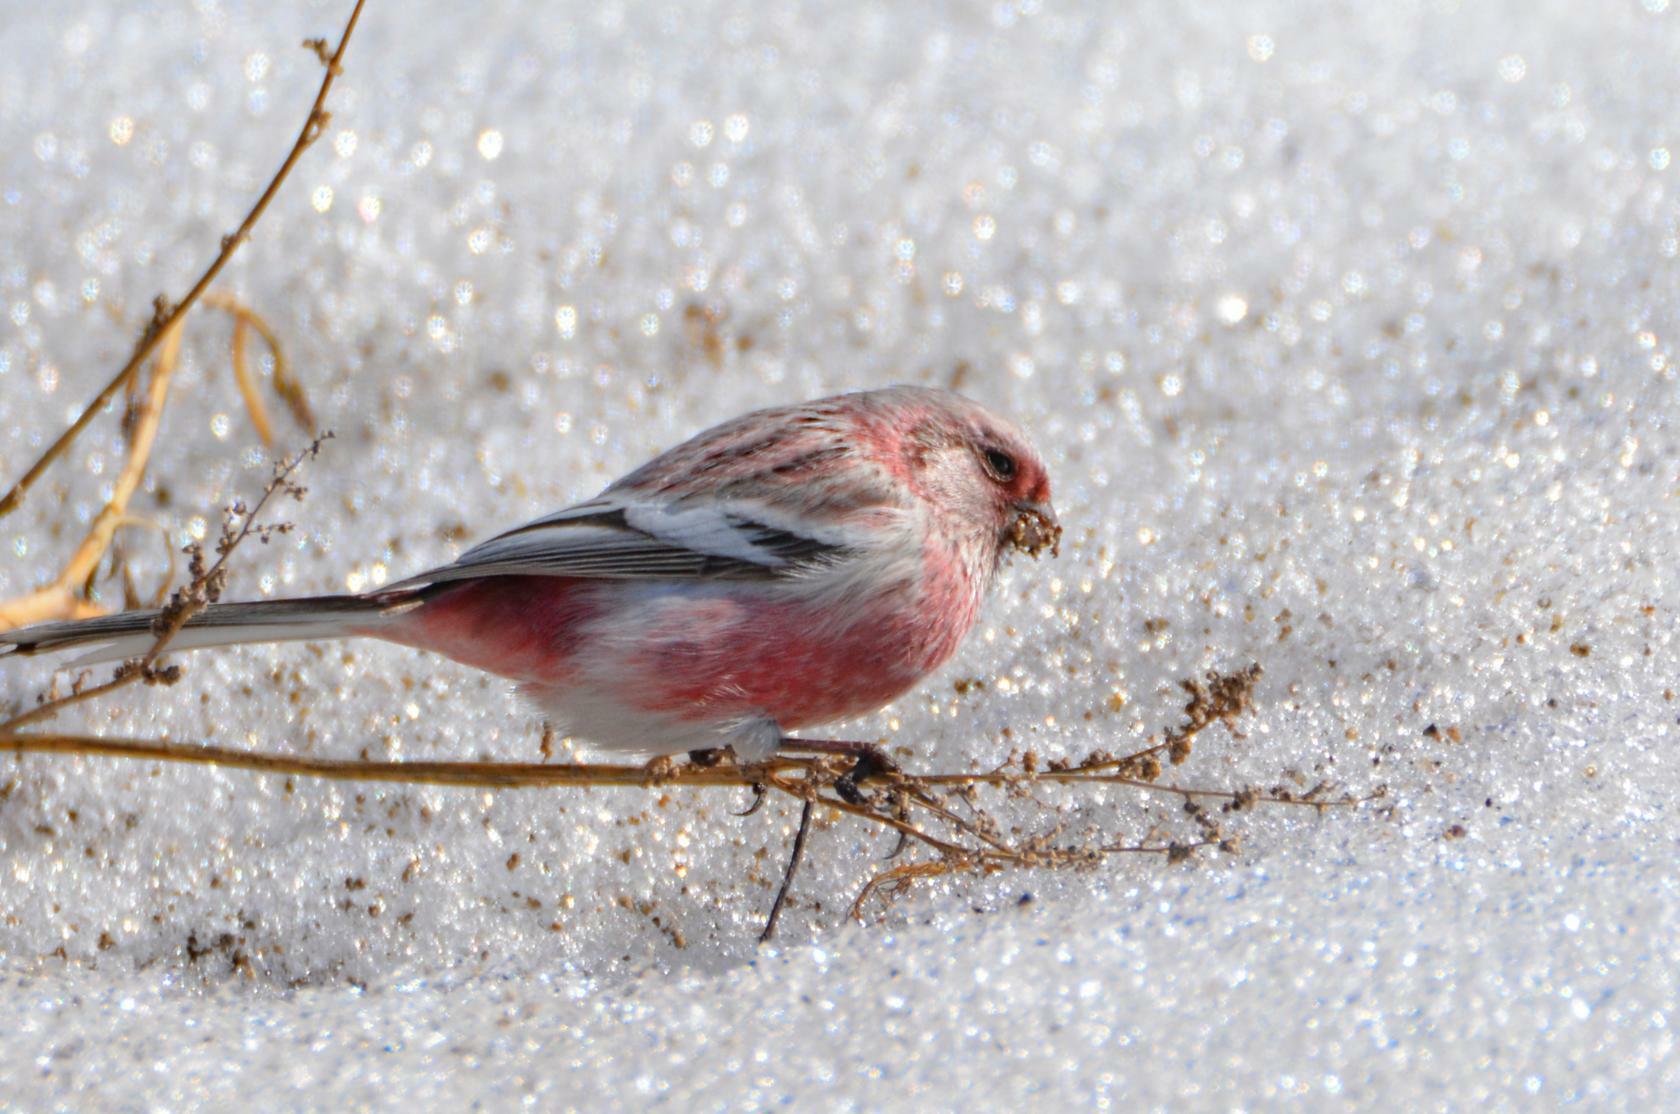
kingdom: Animalia
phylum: Chordata
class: Aves
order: Passeriformes
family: Fringillidae
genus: Carpodacus
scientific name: Carpodacus sibiricus
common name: Long-tailed rosefinch
